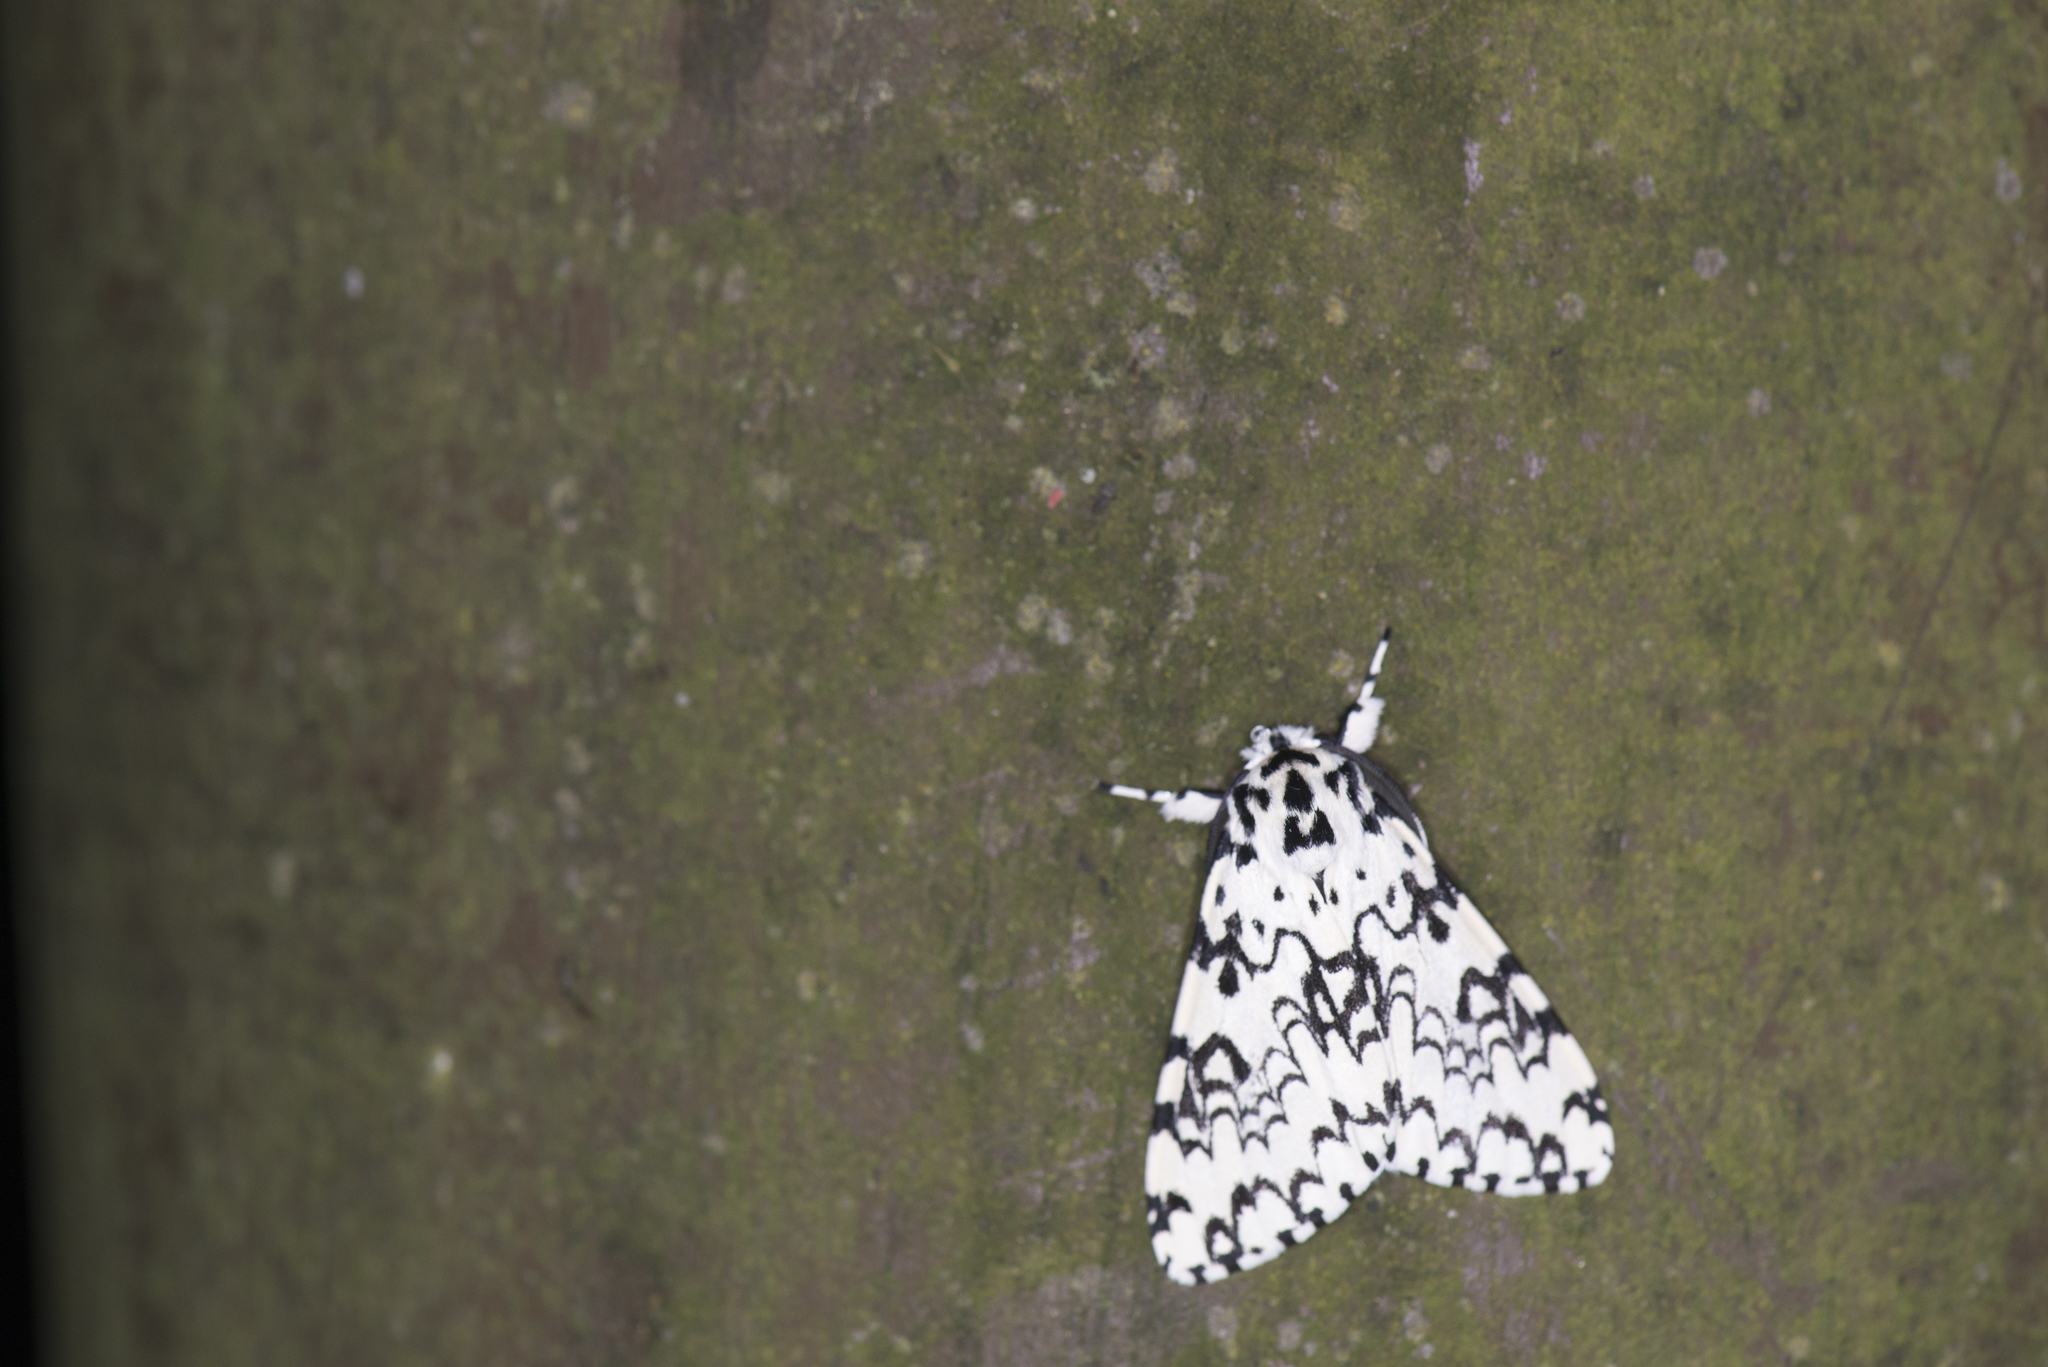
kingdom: Animalia
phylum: Arthropoda
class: Insecta
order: Lepidoptera
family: Erebidae
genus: Lymantria
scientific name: Lymantria concolor
